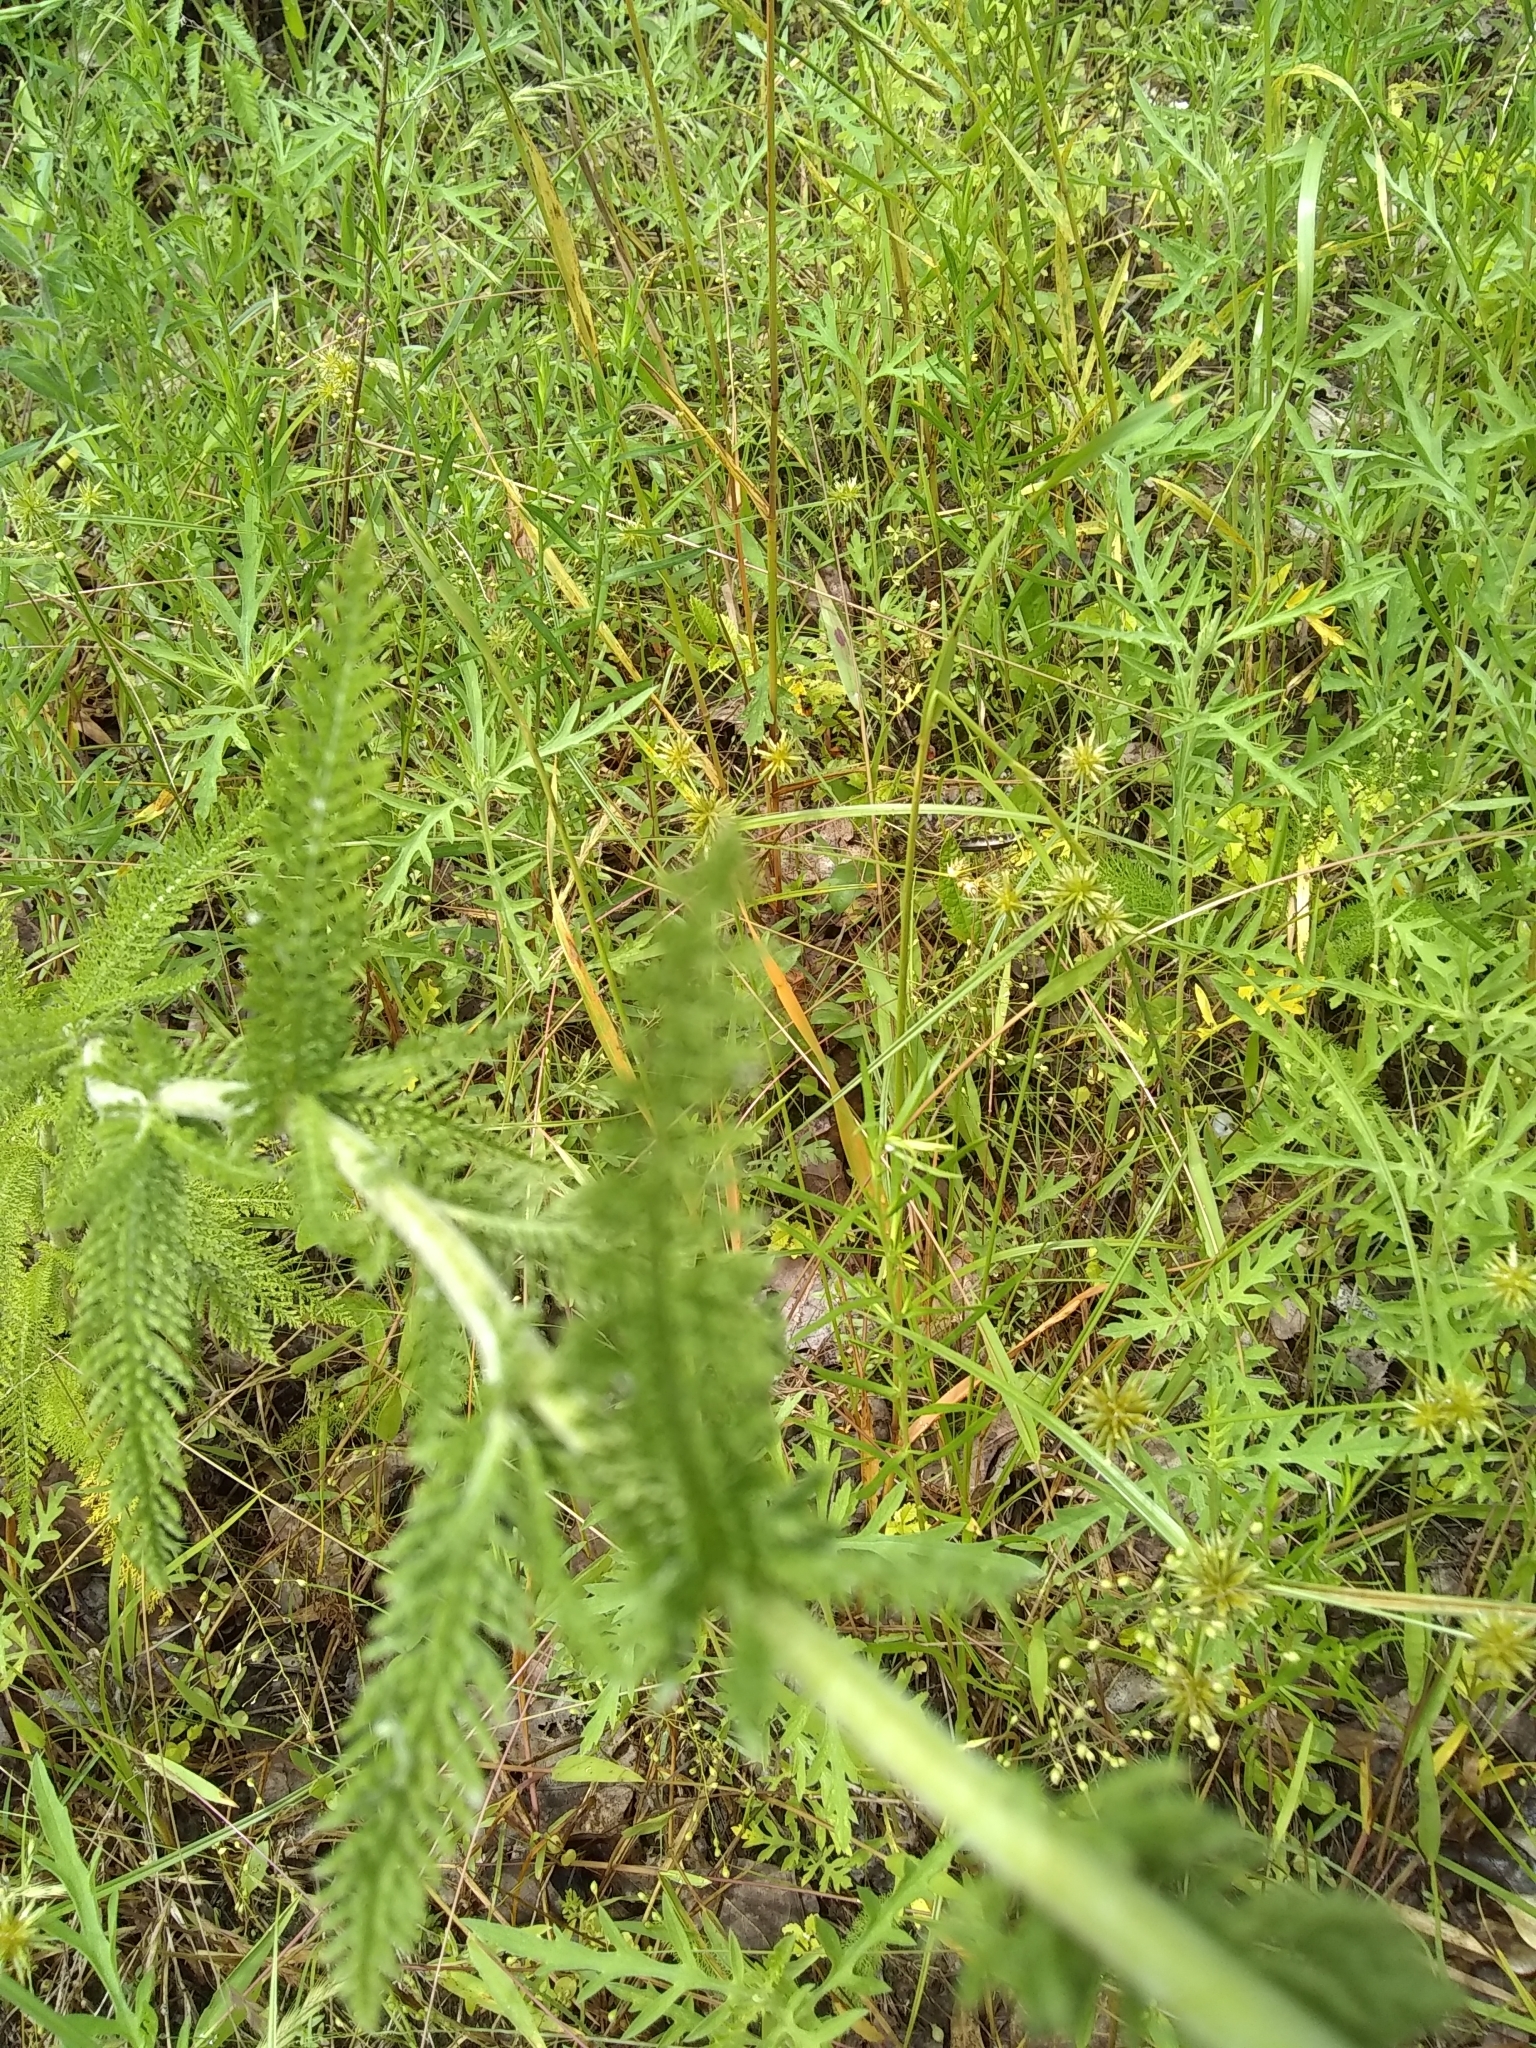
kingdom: Plantae
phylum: Tracheophyta
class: Magnoliopsida
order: Asterales
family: Asteraceae
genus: Achillea
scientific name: Achillea millefolium
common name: Yarrow
